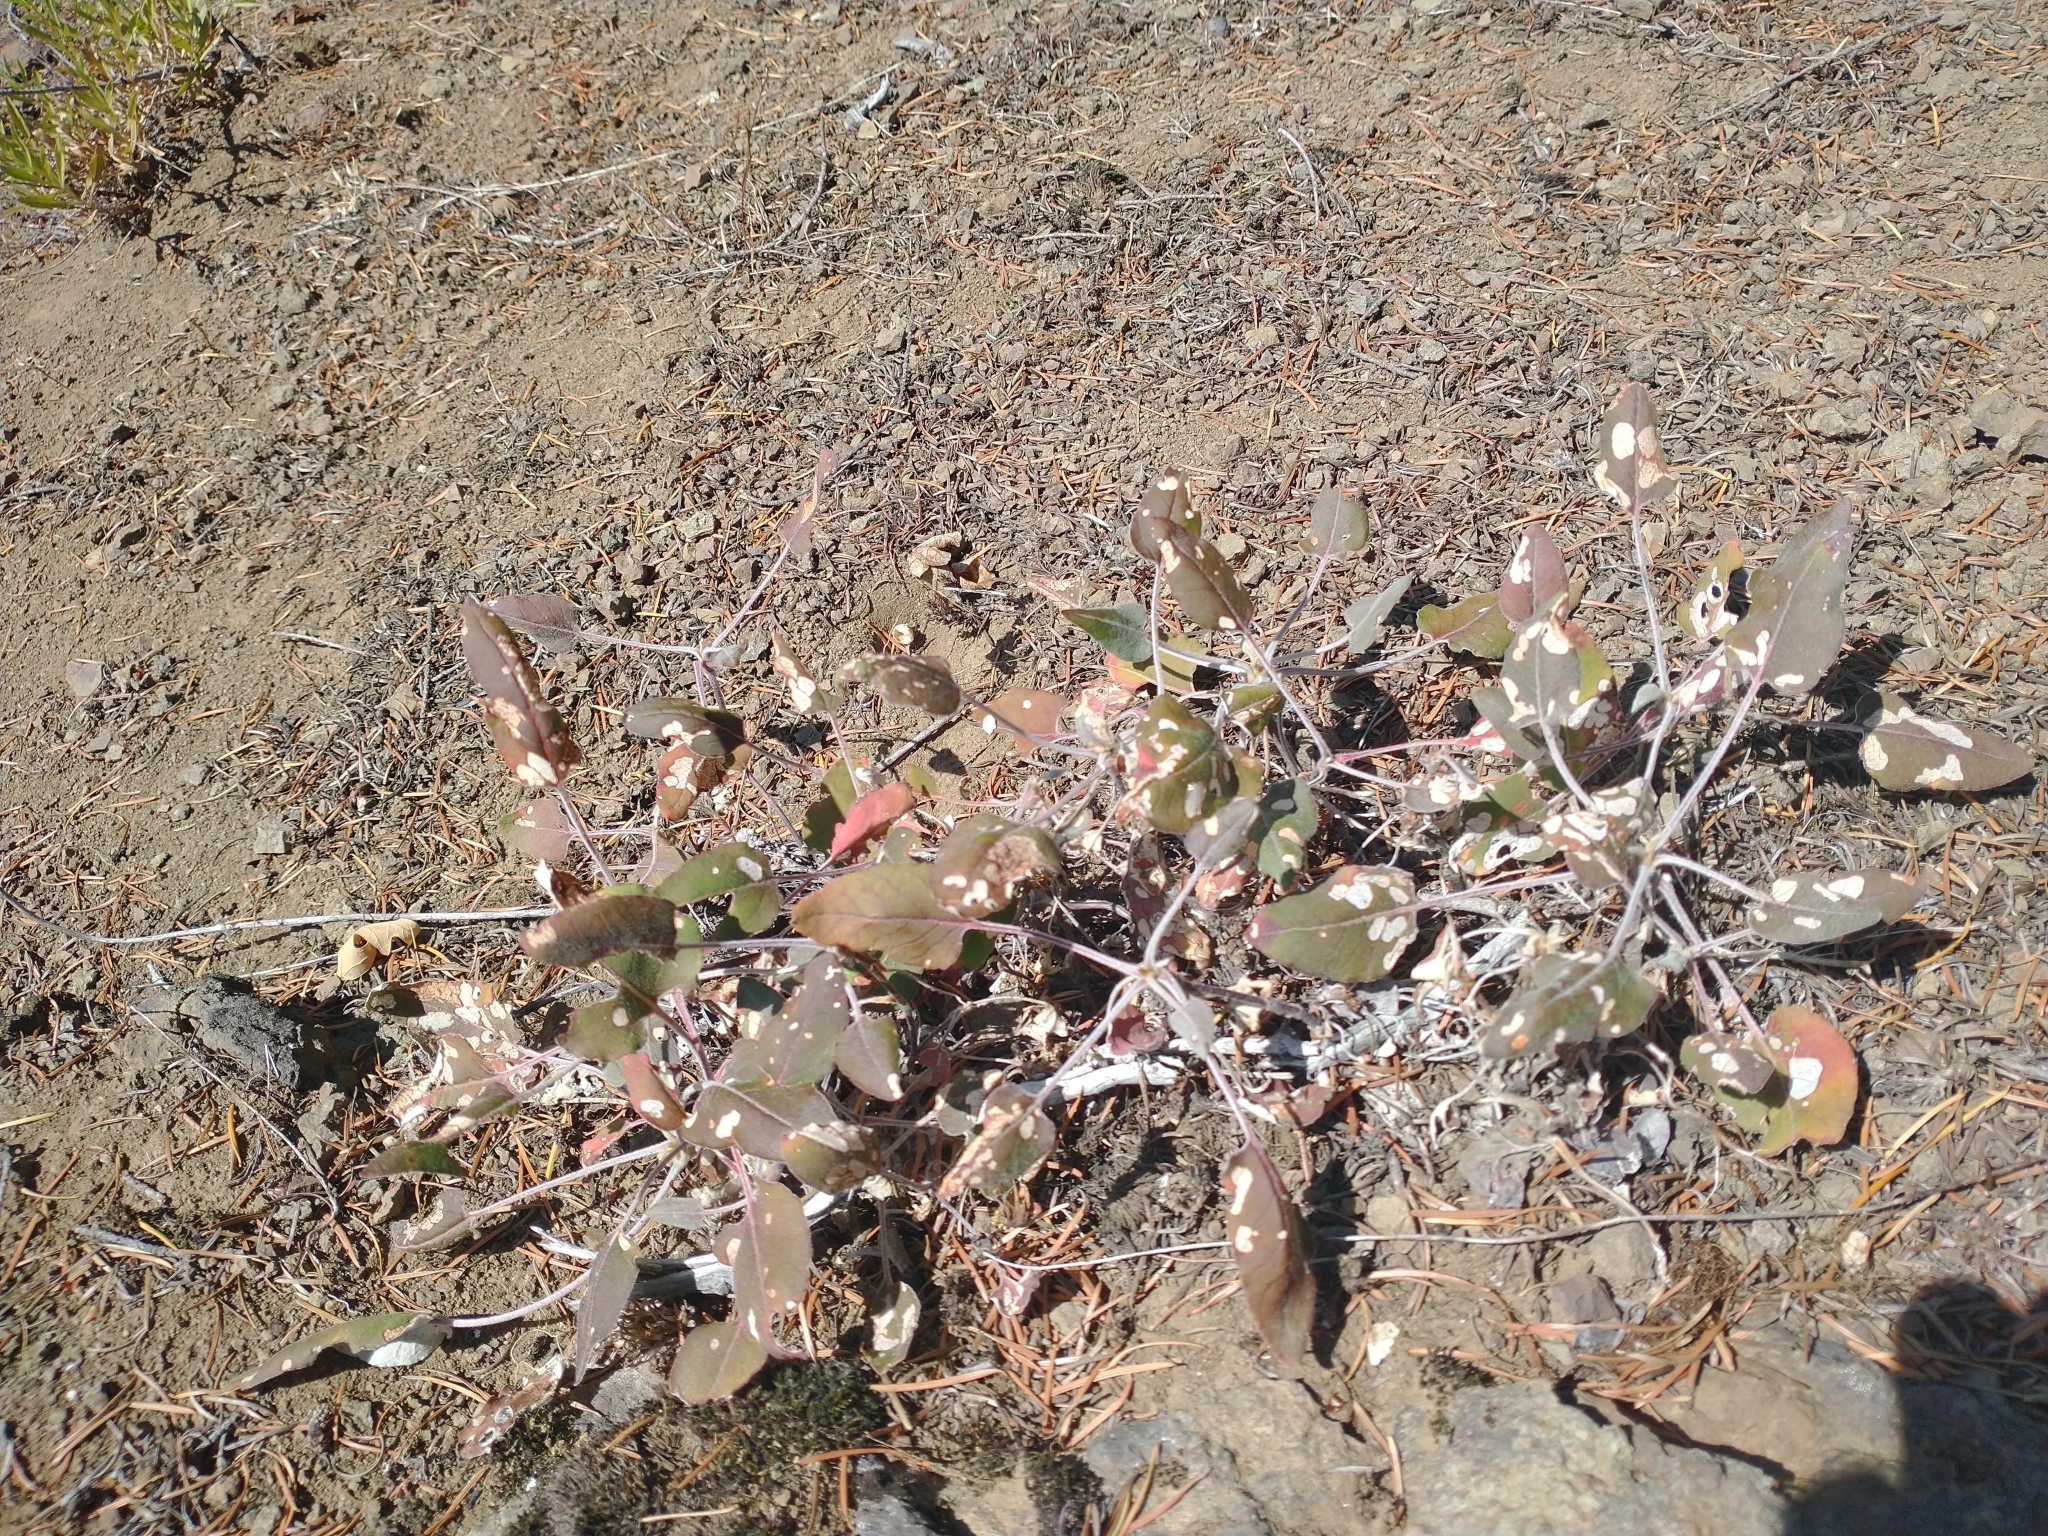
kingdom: Plantae
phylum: Tracheophyta
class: Magnoliopsida
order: Caryophyllales
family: Polygonaceae
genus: Eriogonum
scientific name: Eriogonum compositum
